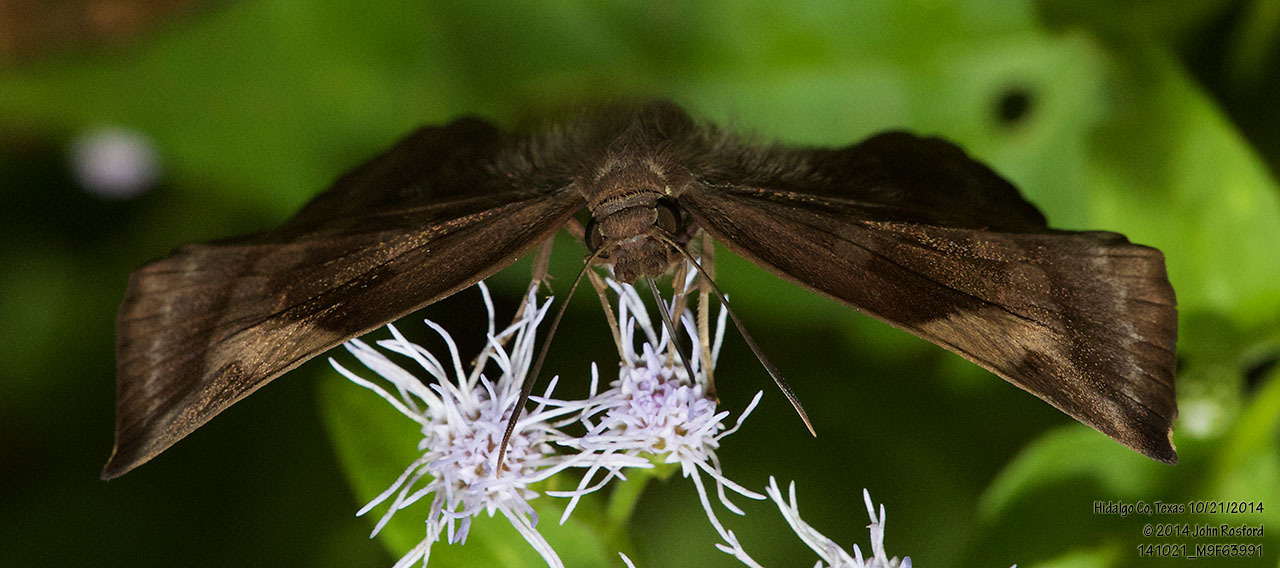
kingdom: Animalia
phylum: Arthropoda
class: Insecta
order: Lepidoptera
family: Hesperiidae
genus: Achlyodes
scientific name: Achlyodes thraso
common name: Sickle-winged skipper
